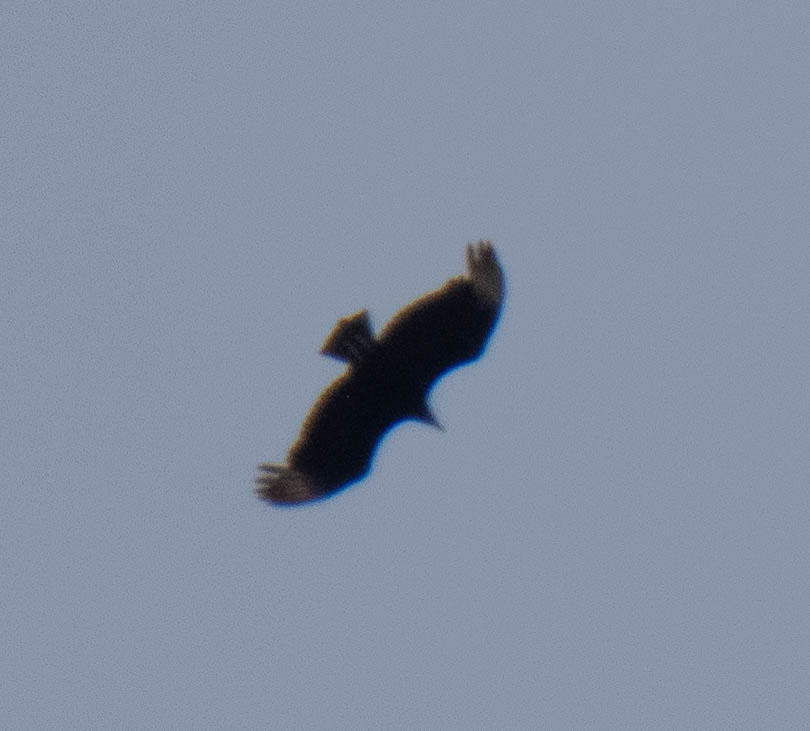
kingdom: Animalia
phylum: Chordata
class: Aves
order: Accipitriformes
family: Cathartidae
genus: Coragyps
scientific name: Coragyps atratus
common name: Black vulture
